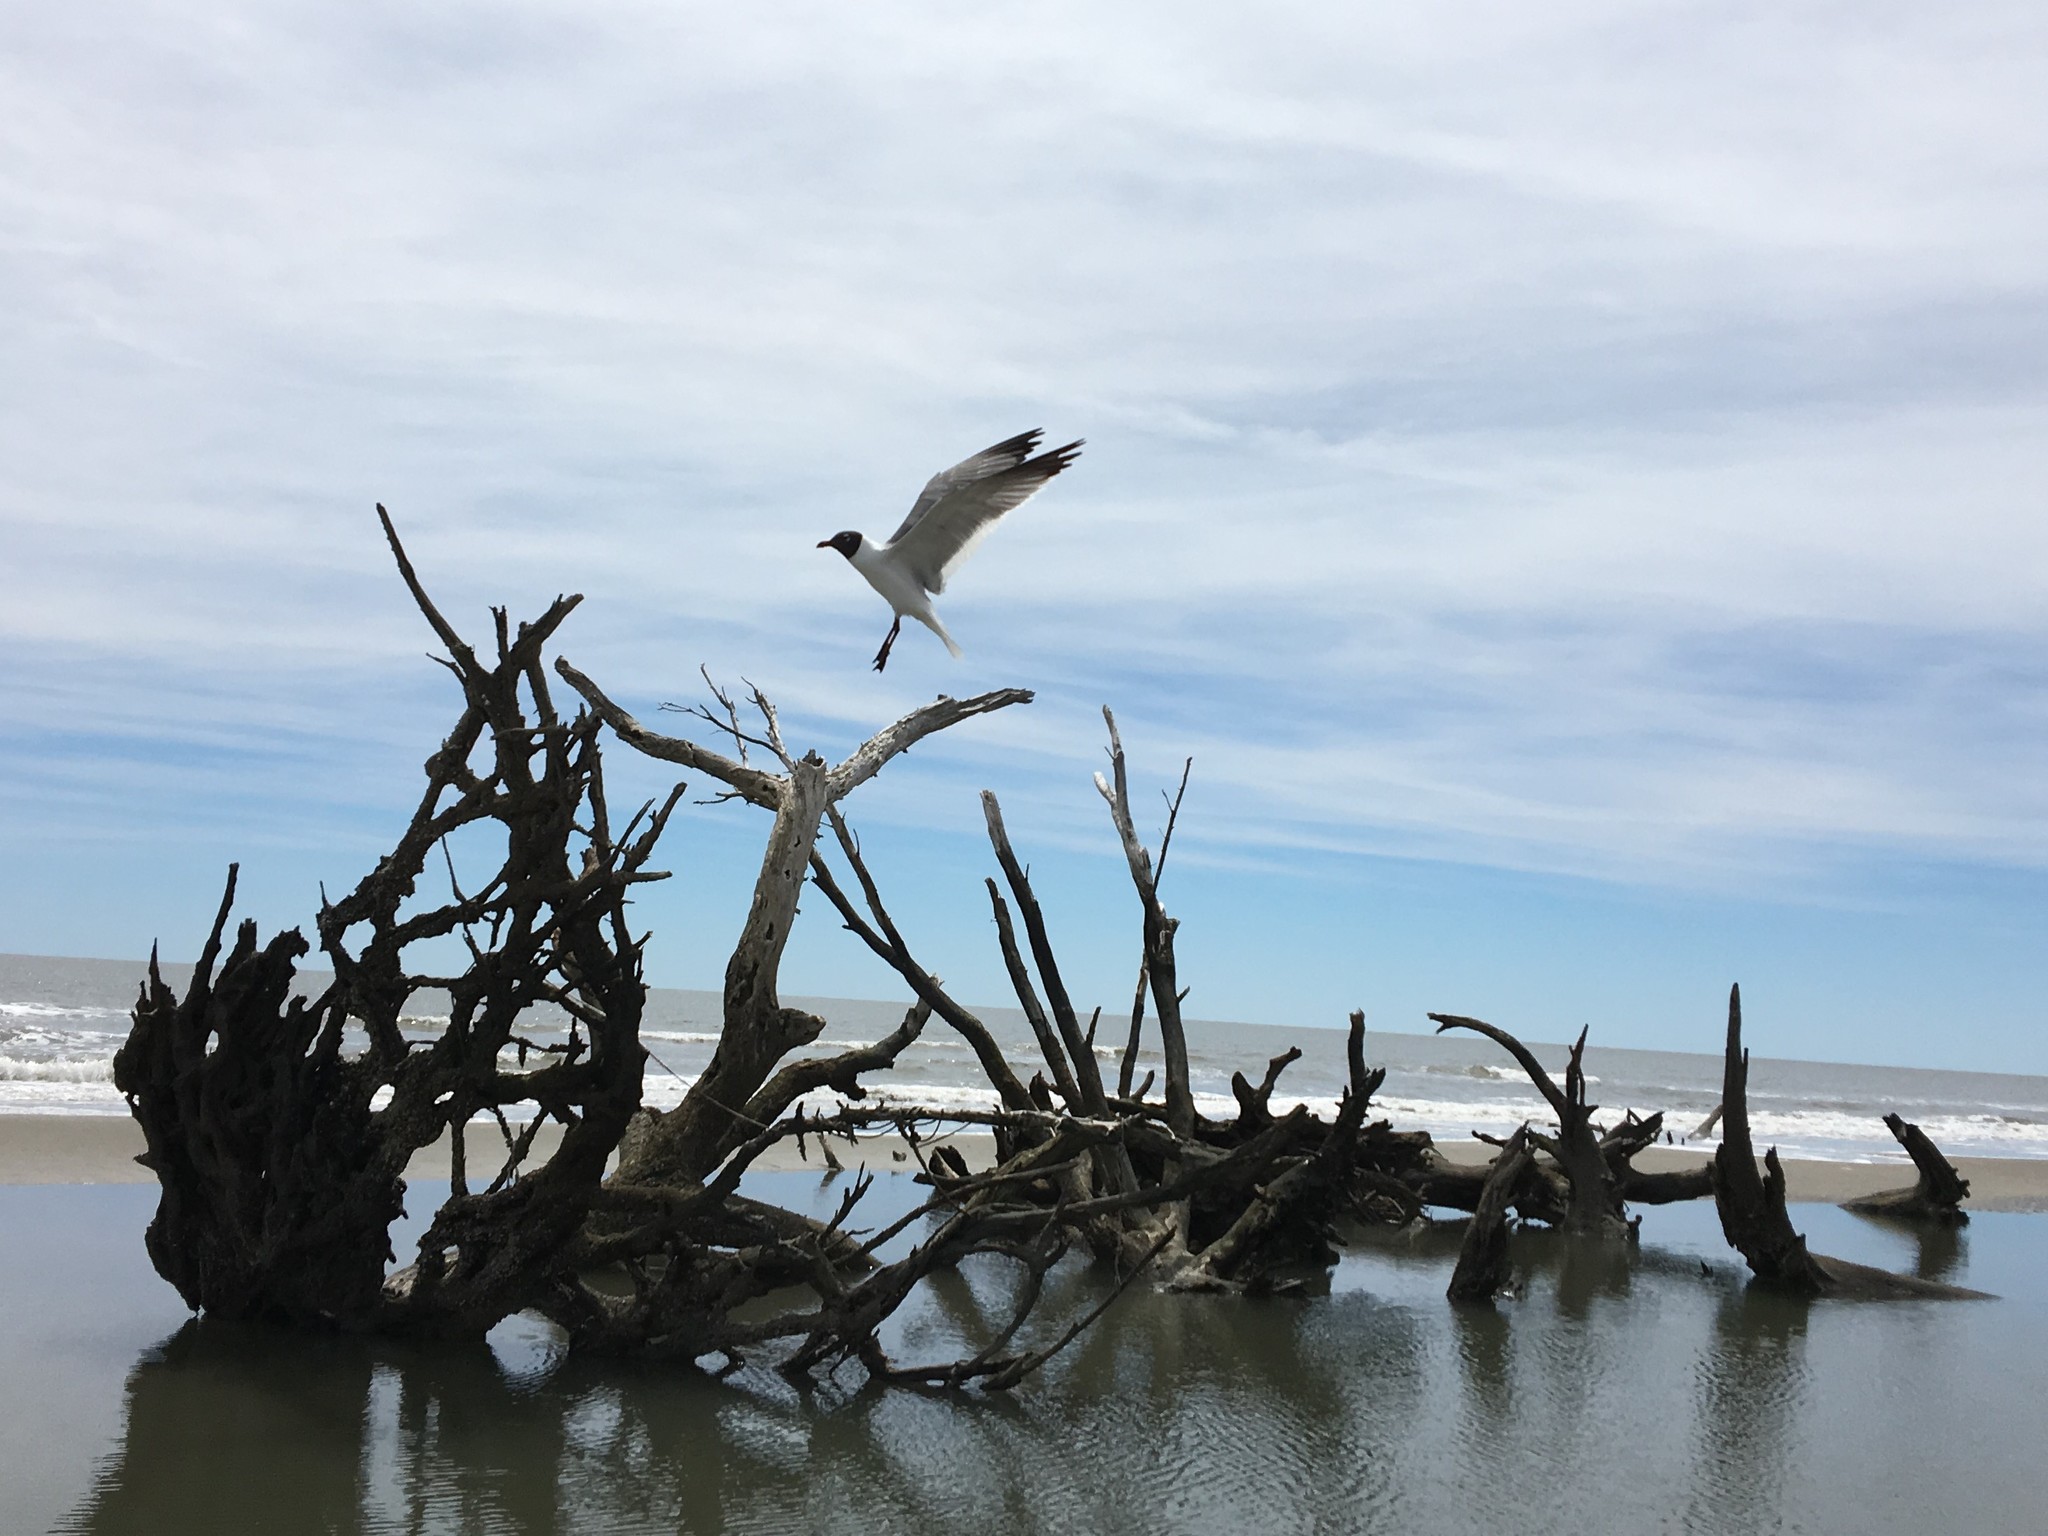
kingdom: Animalia
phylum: Chordata
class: Aves
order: Charadriiformes
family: Laridae
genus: Leucophaeus
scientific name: Leucophaeus atricilla
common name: Laughing gull
